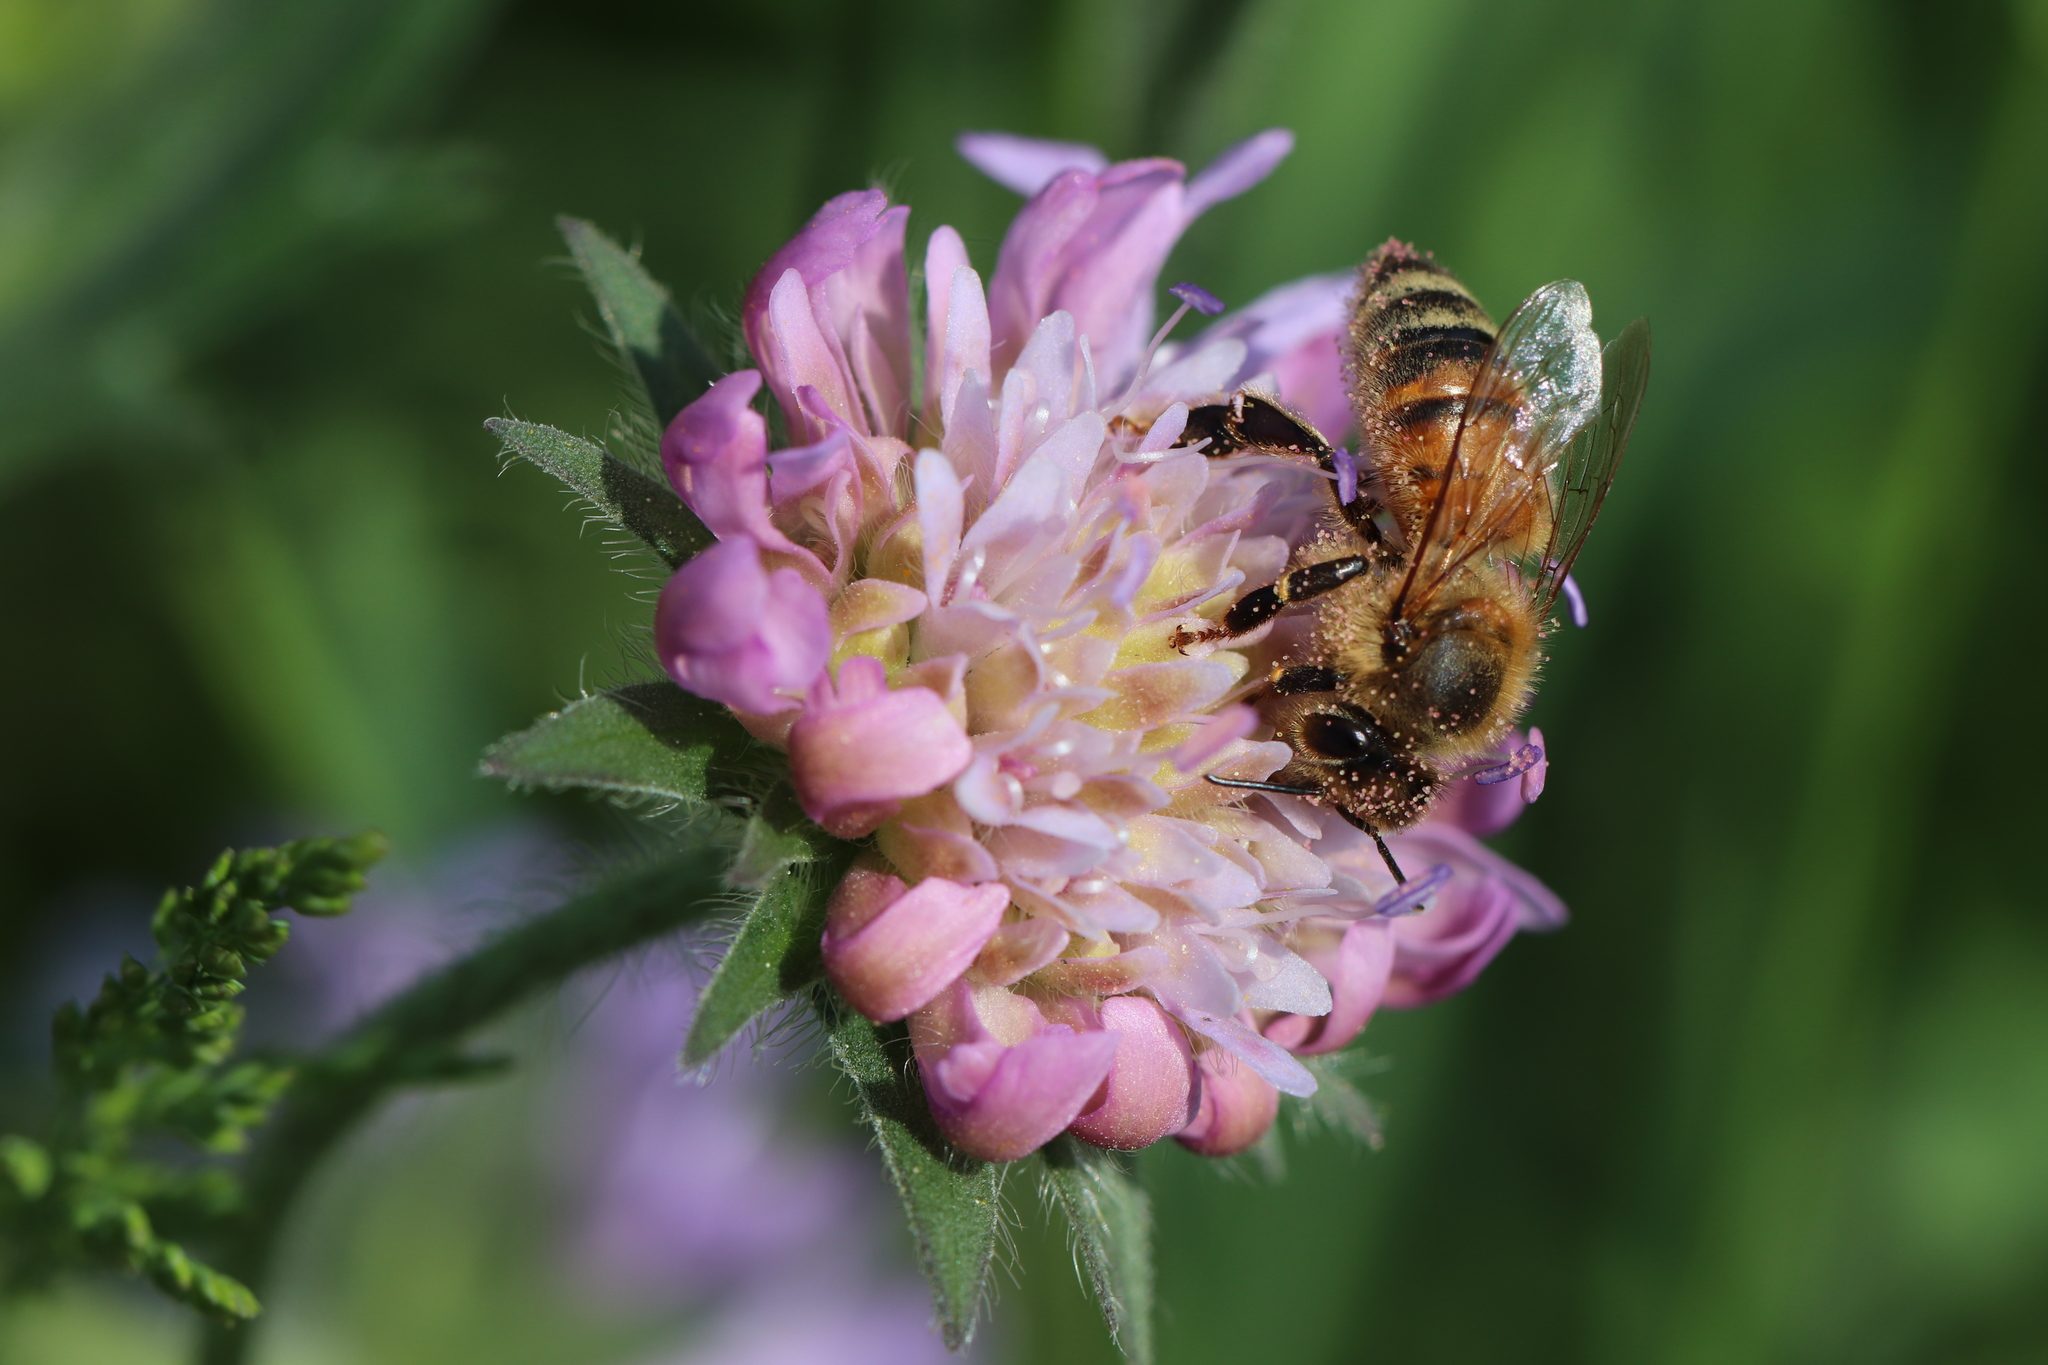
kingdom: Animalia
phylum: Arthropoda
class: Insecta
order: Hymenoptera
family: Apidae
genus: Apis
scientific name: Apis mellifera
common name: Honey bee
